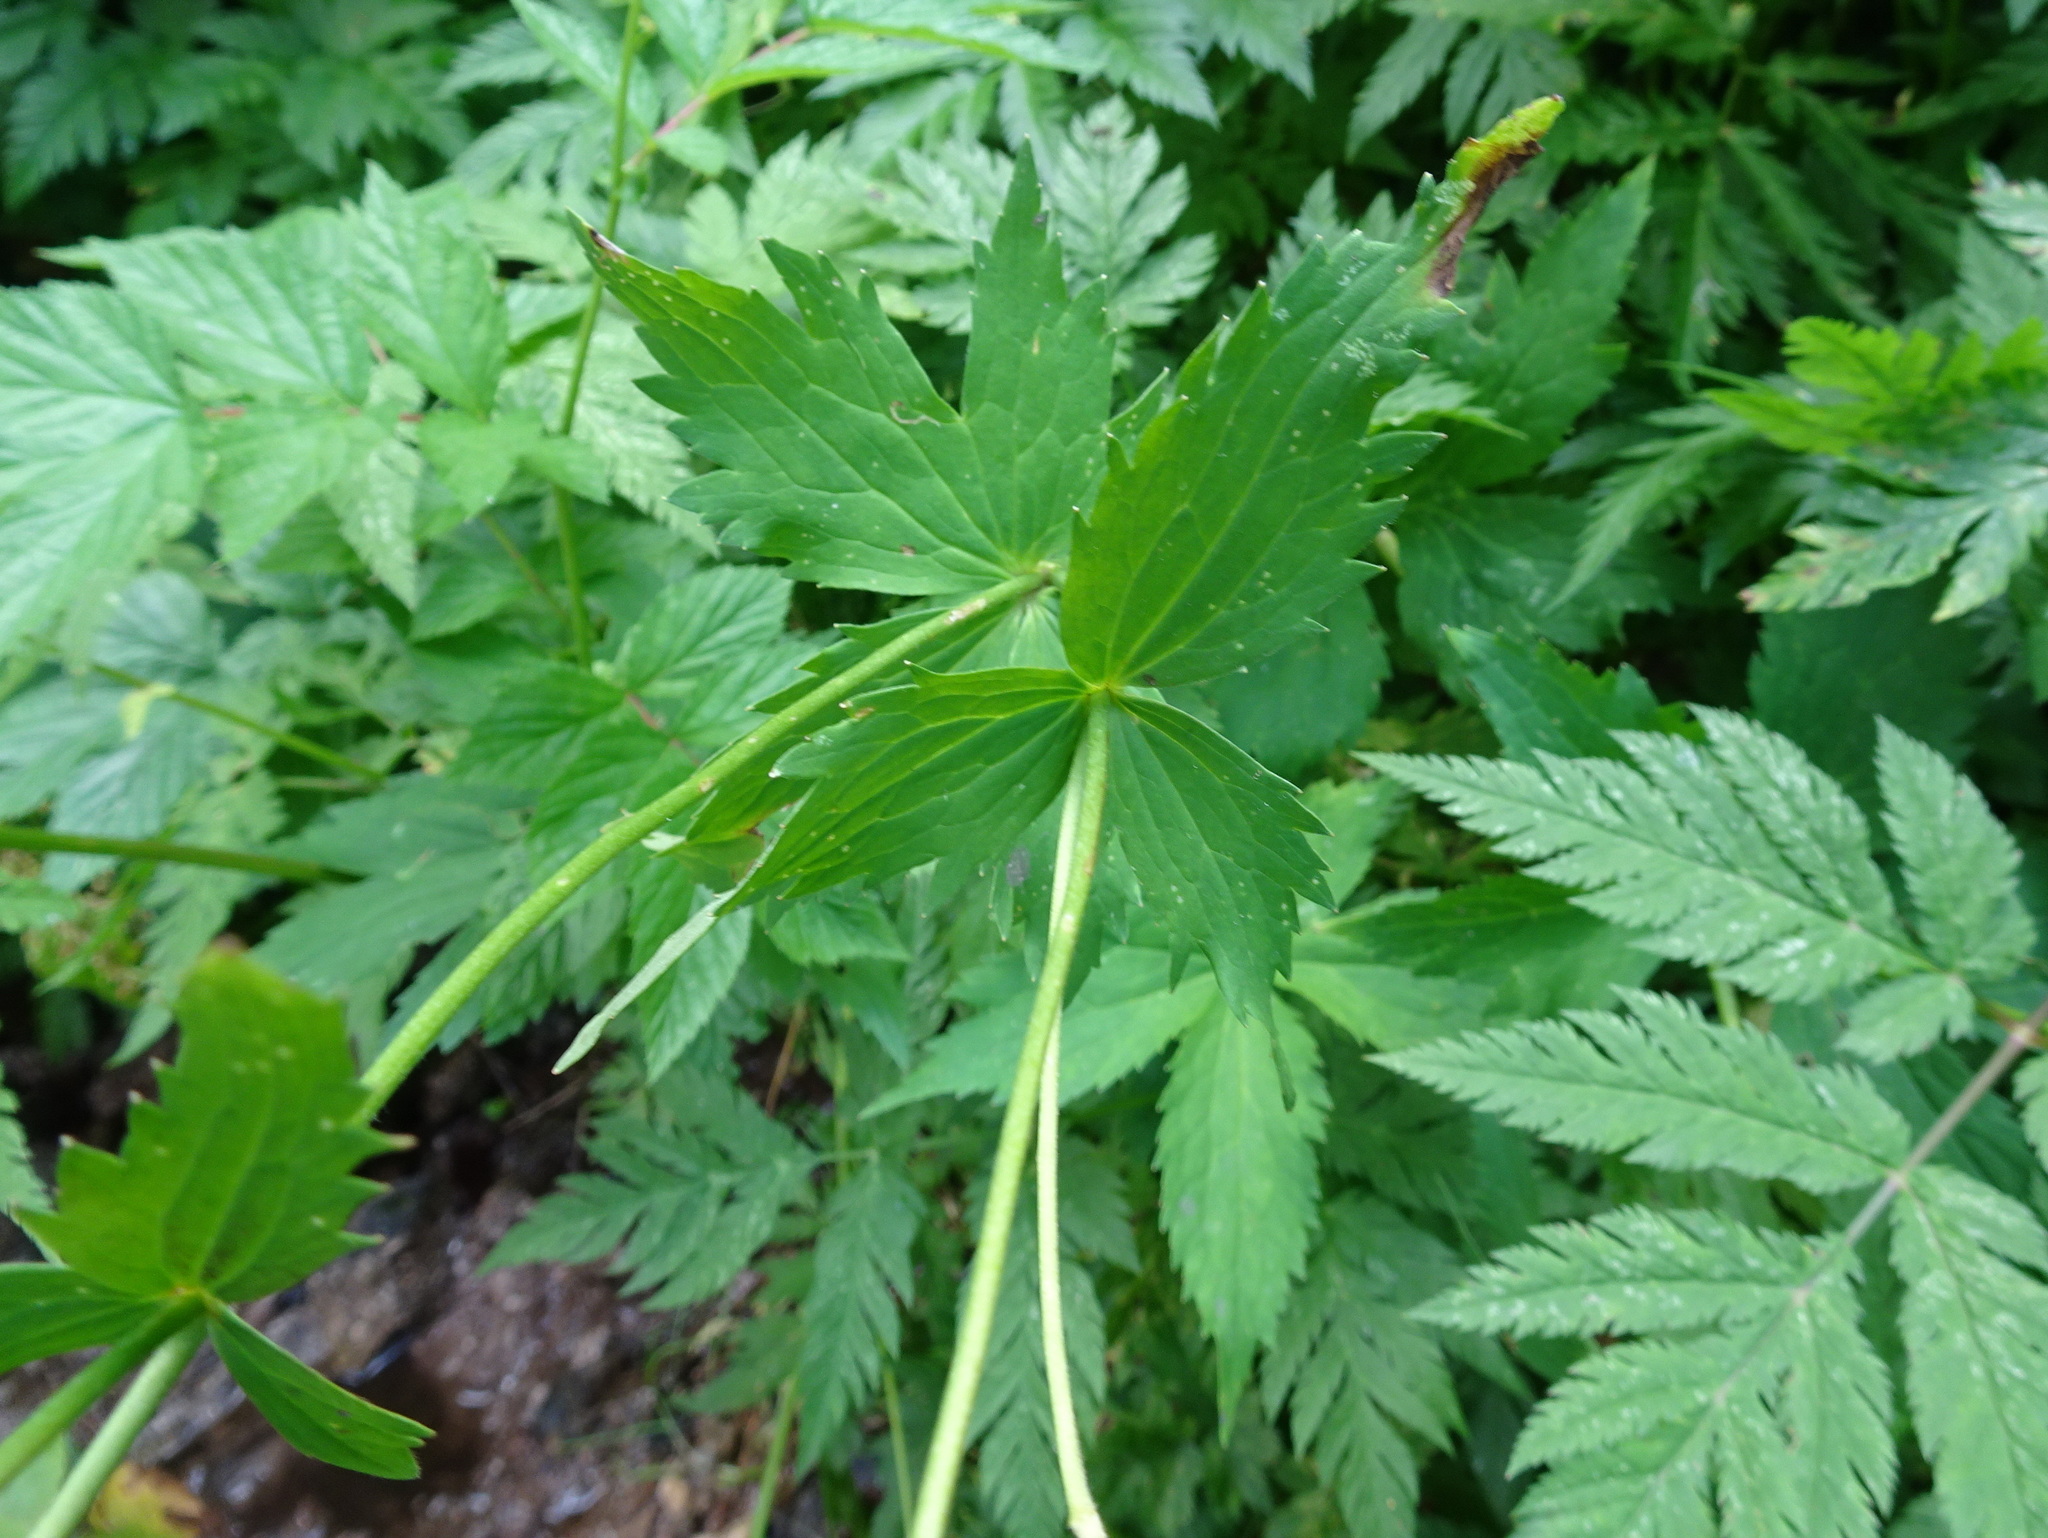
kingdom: Plantae
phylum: Tracheophyta
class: Magnoliopsida
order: Ranunculales
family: Ranunculaceae
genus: Ranunculus
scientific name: Ranunculus aconitifolius
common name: Aconite-leaved buttercup
